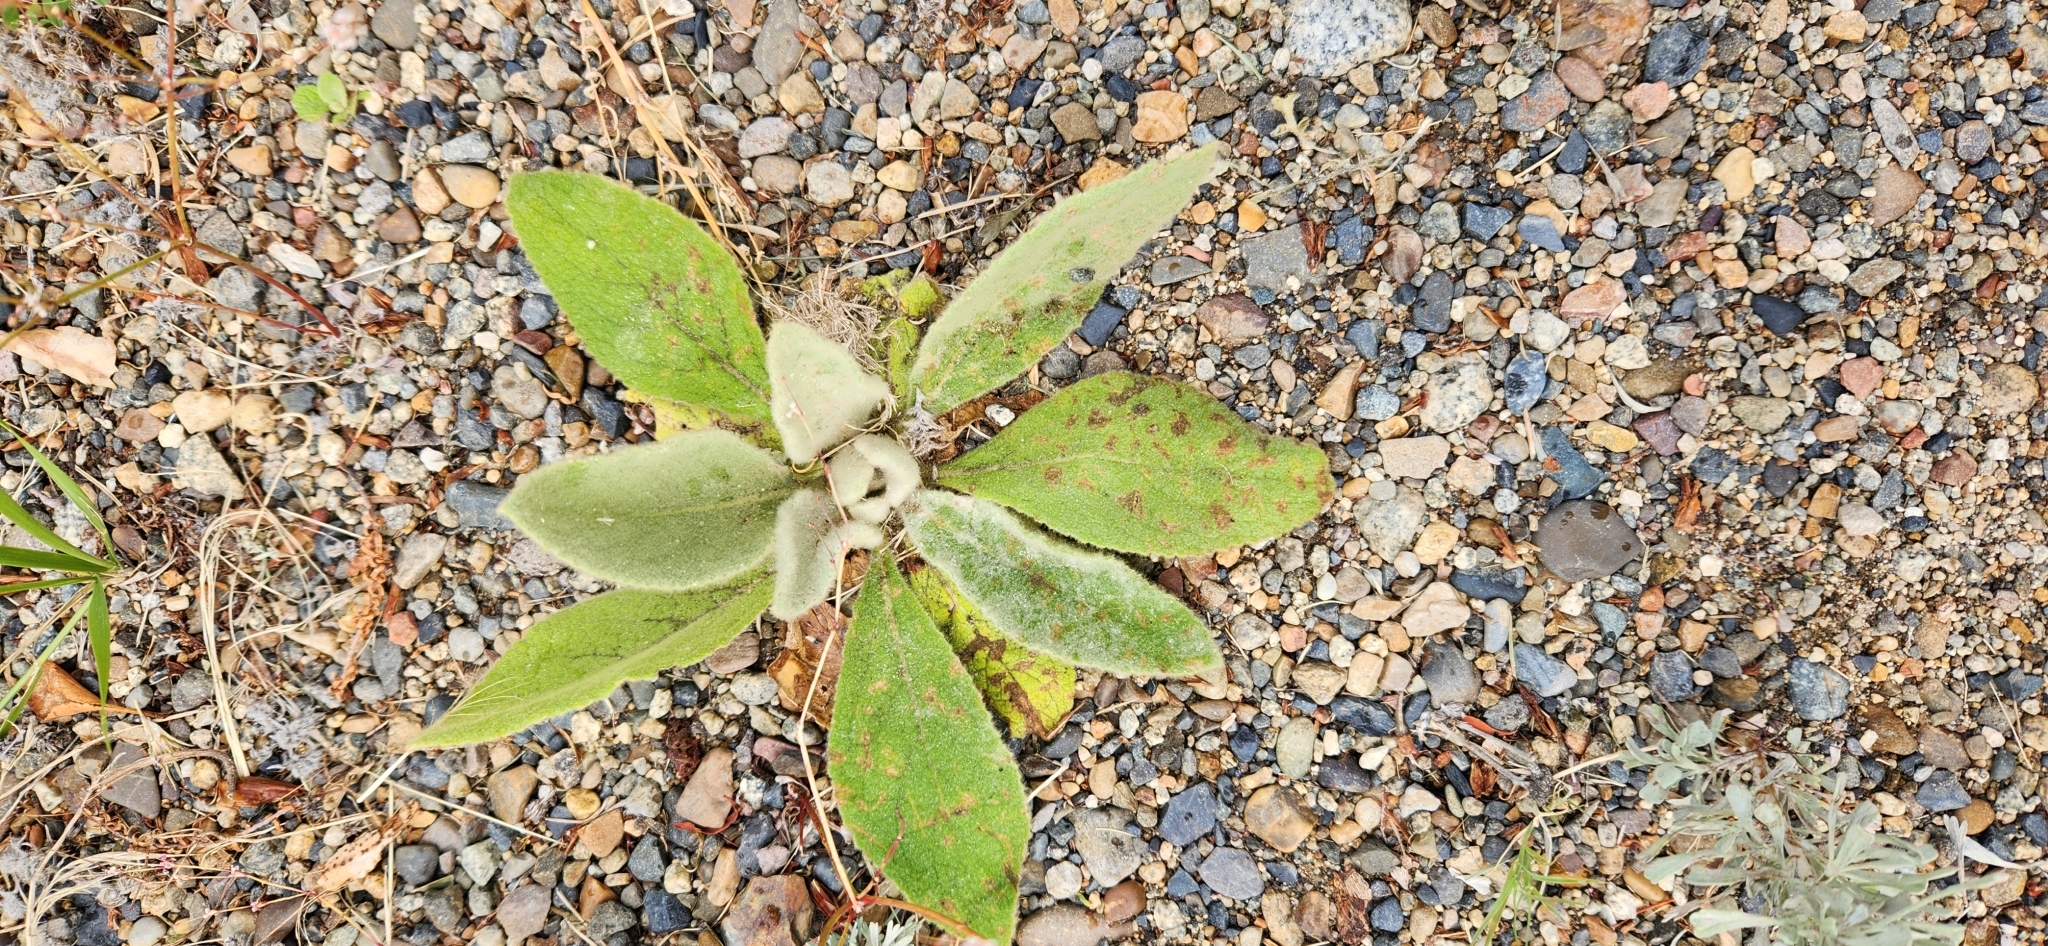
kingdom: Plantae
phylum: Tracheophyta
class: Magnoliopsida
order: Lamiales
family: Scrophulariaceae
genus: Verbascum
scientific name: Verbascum thapsus
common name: Common mullein
